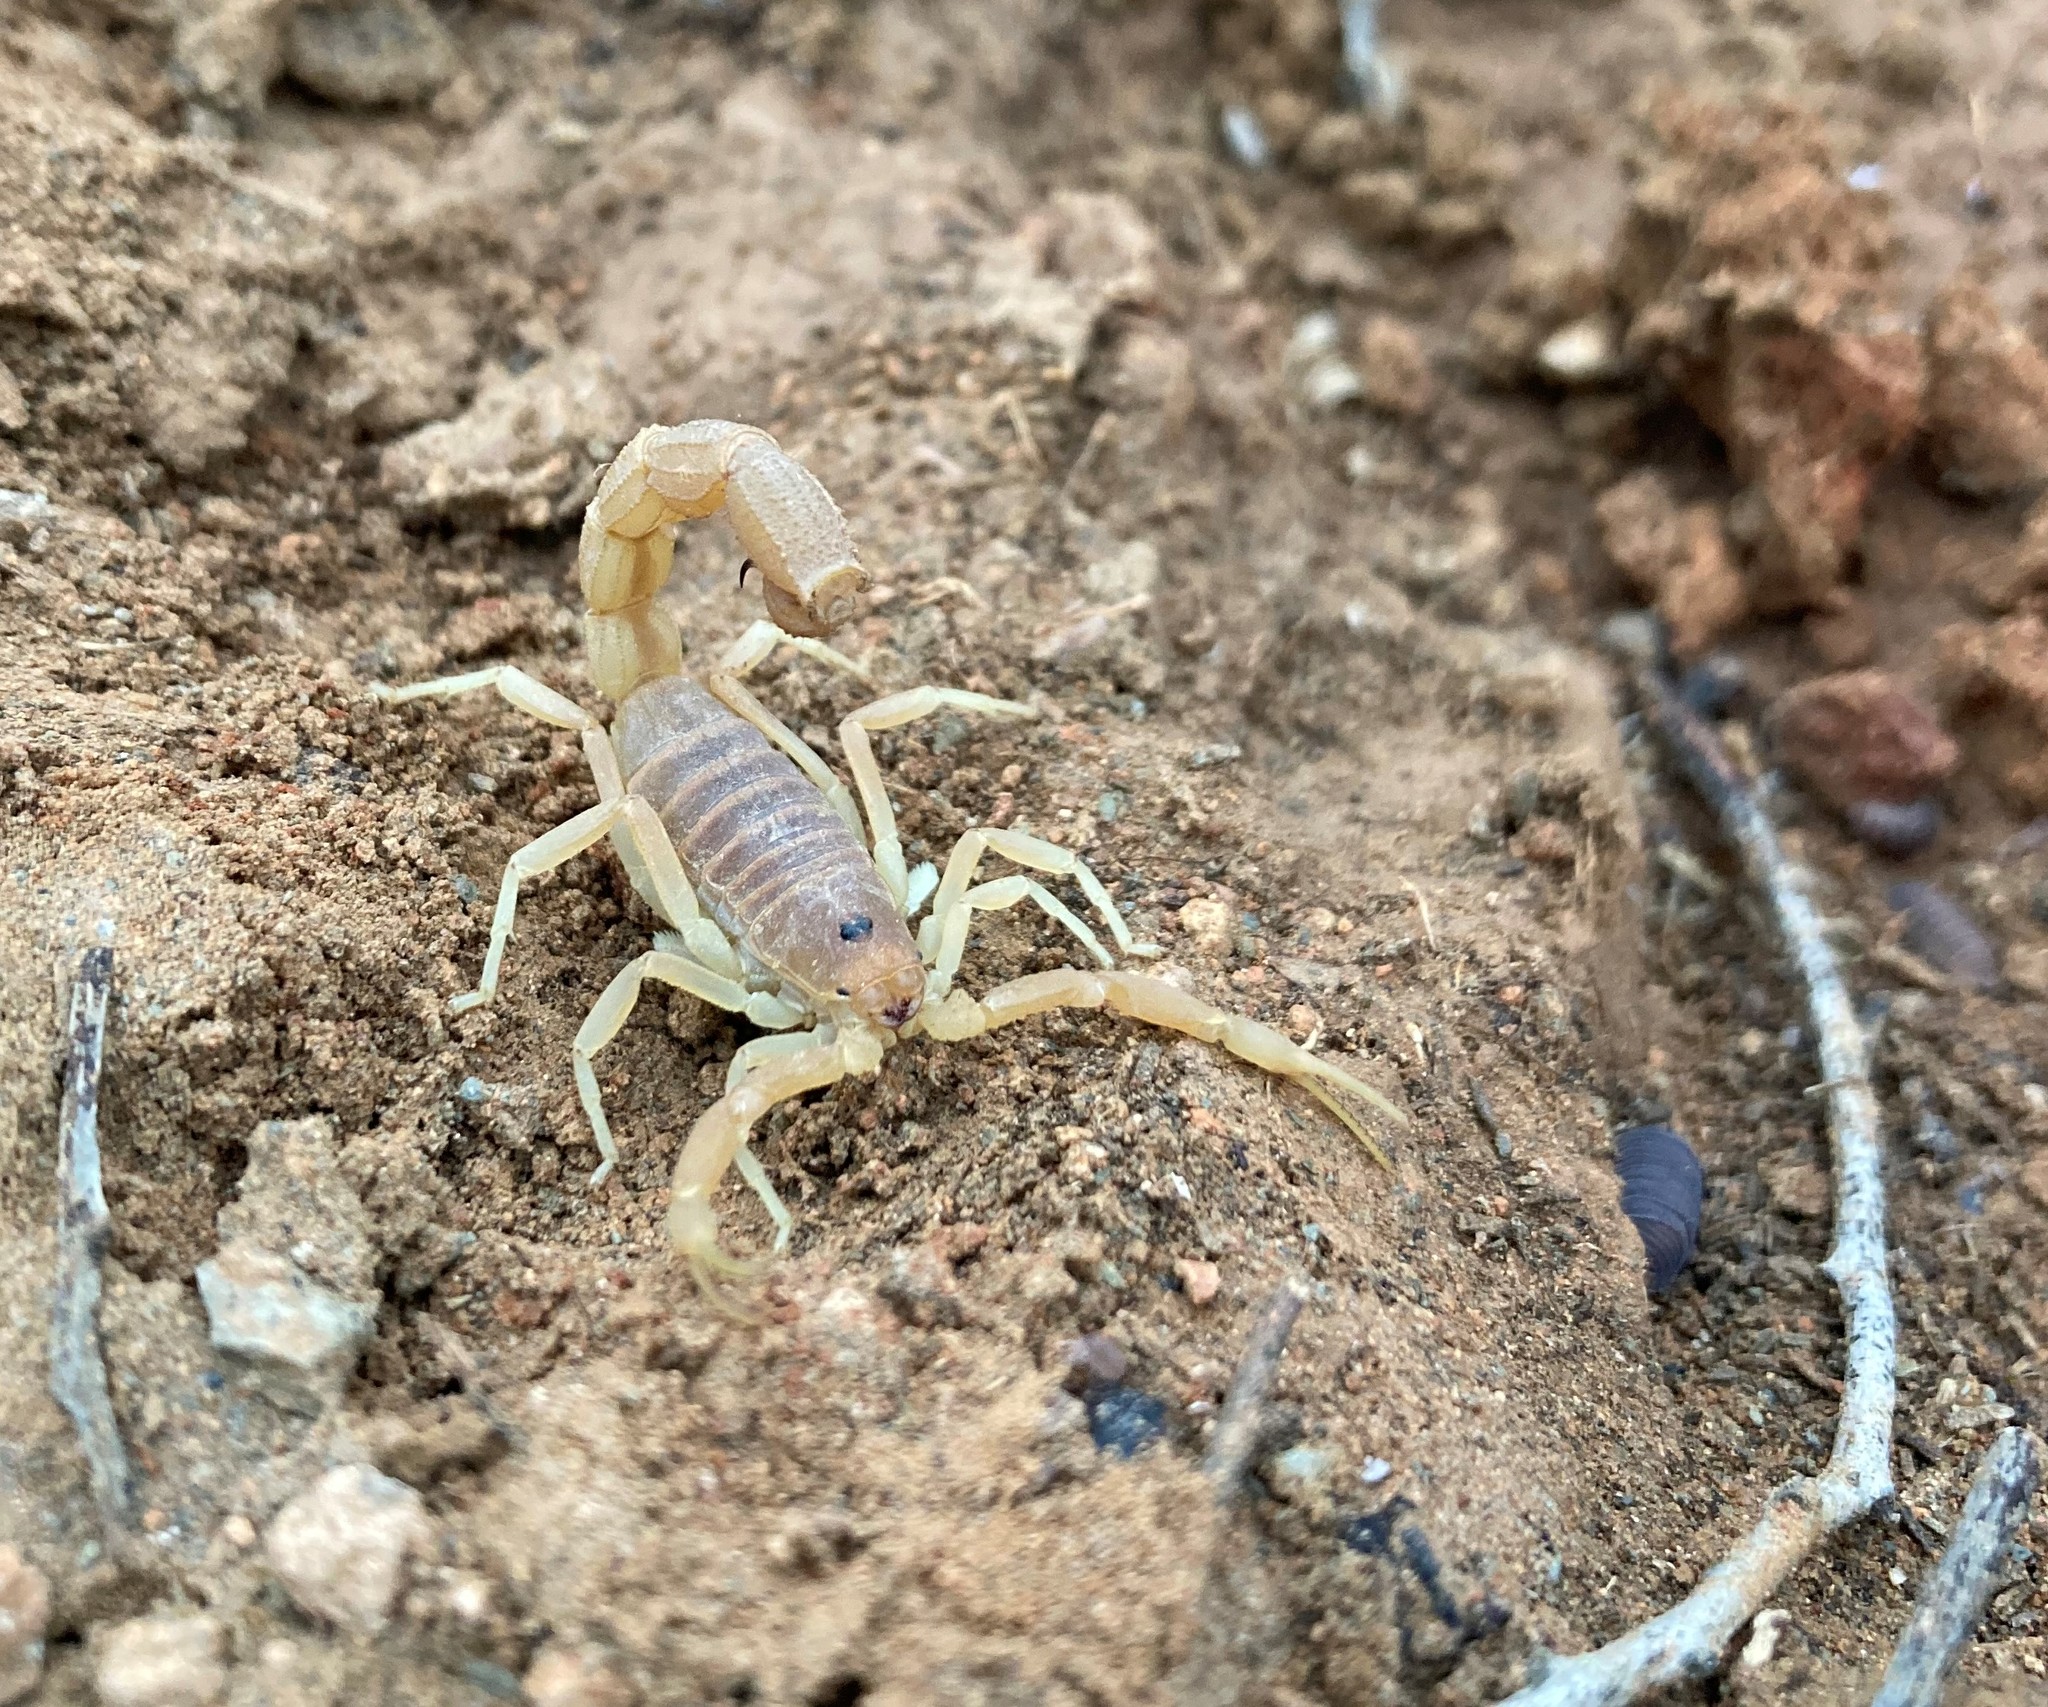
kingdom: Animalia
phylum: Arthropoda
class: Arachnida
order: Scorpiones
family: Buthidae
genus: Parabuthus
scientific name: Parabuthus planicauda
